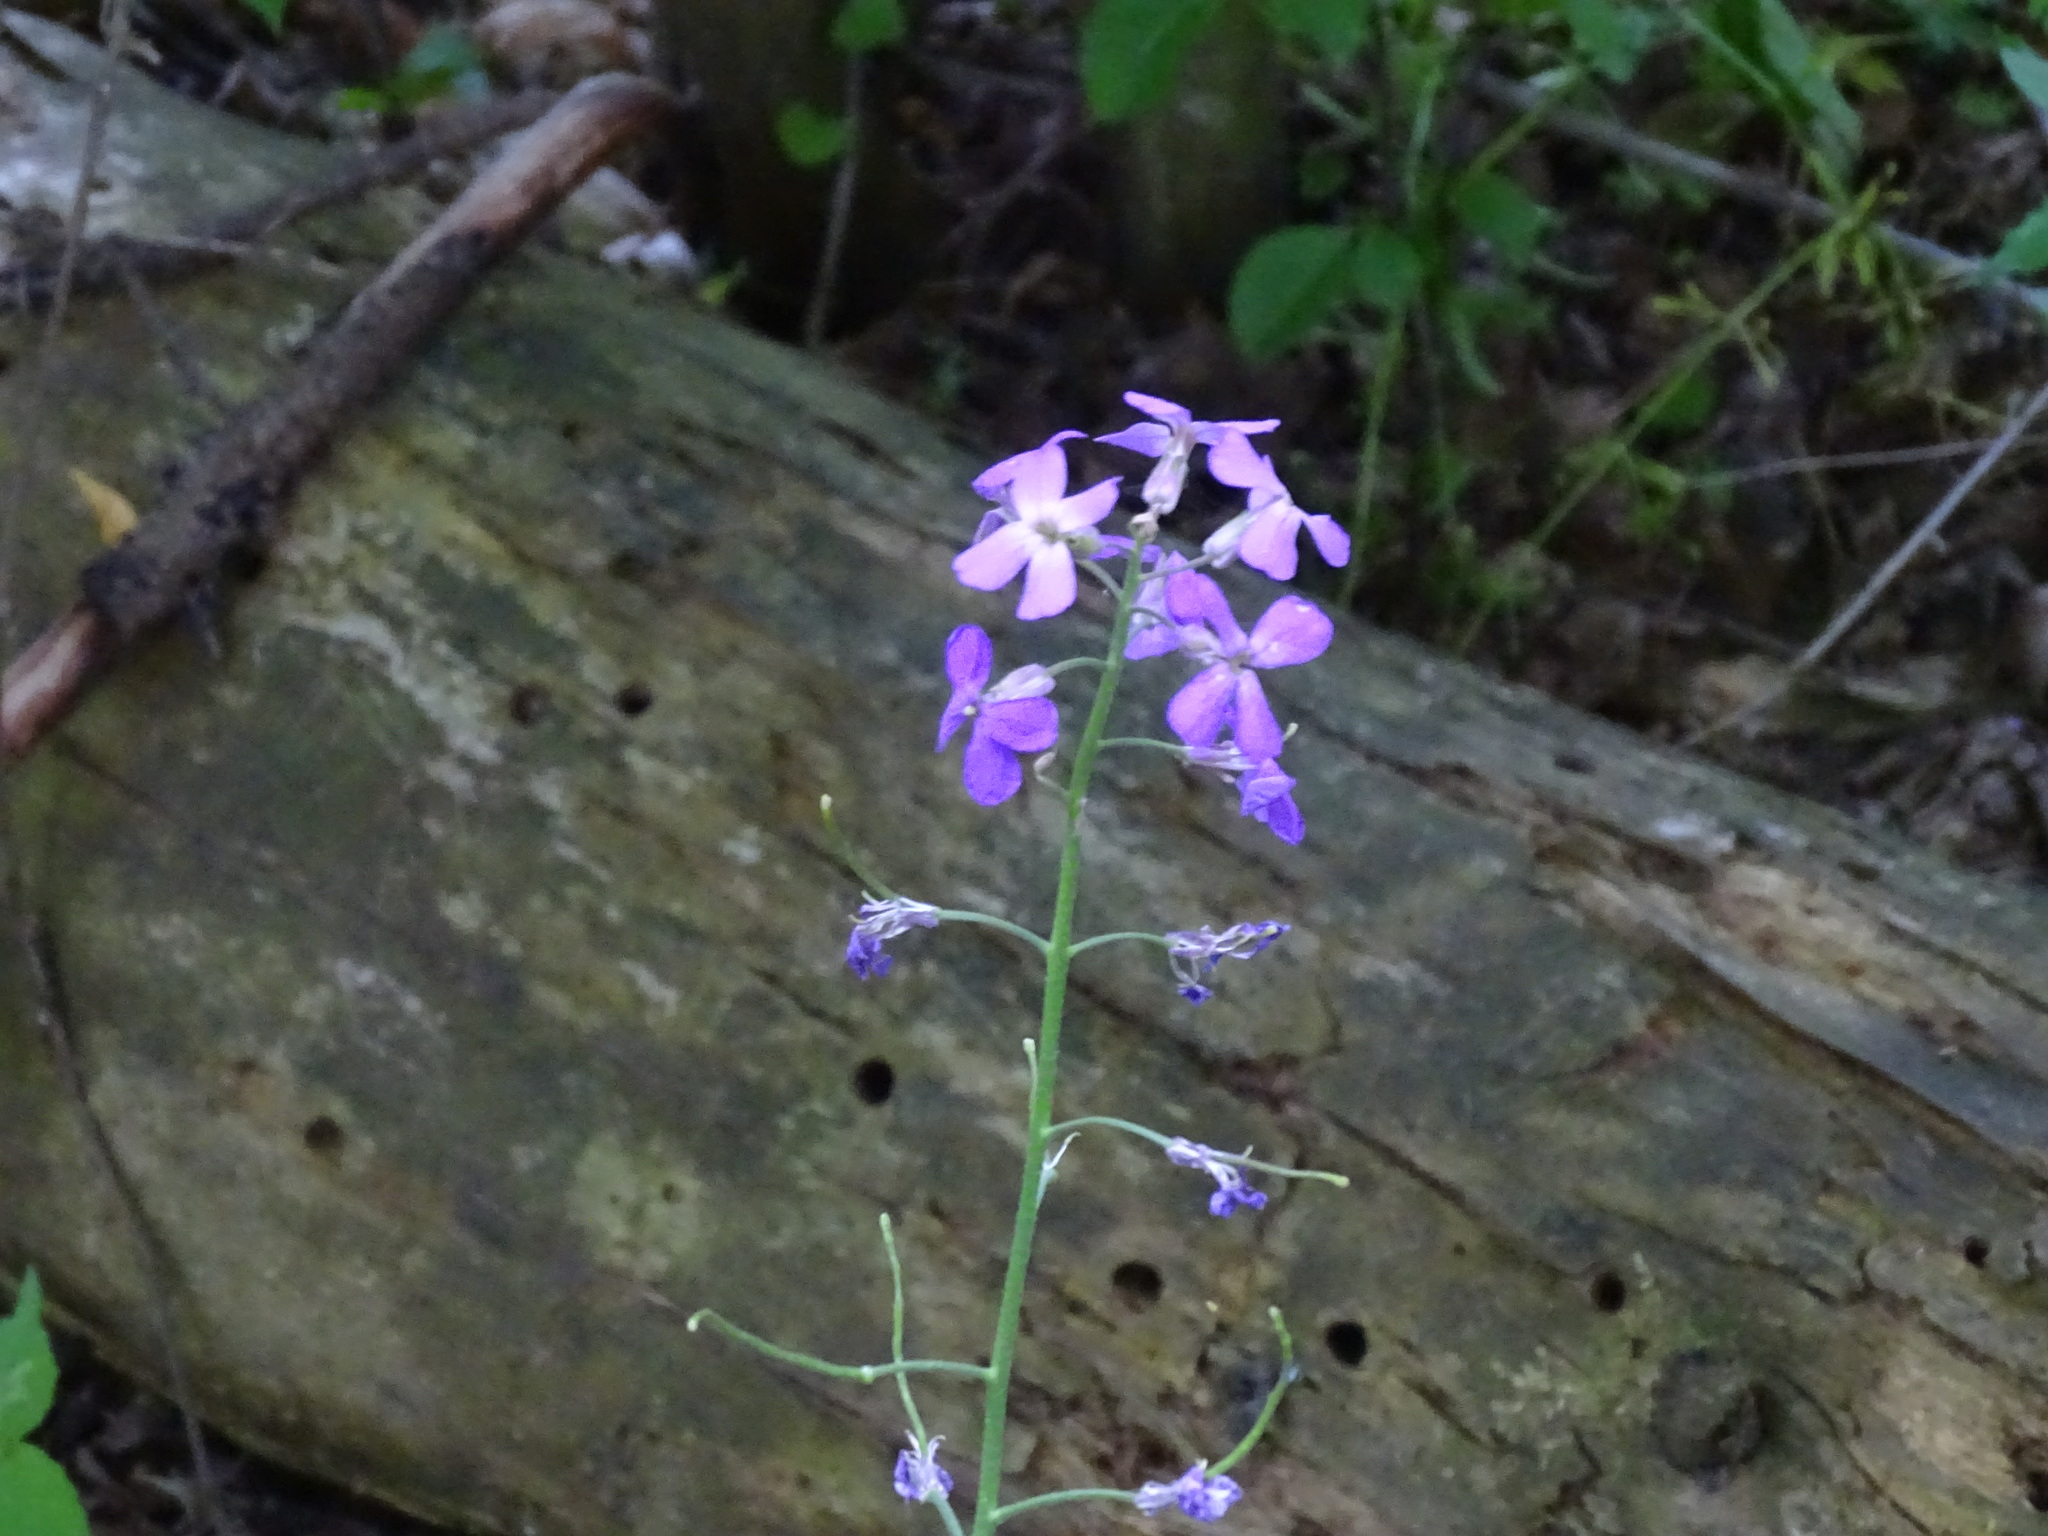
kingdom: Plantae
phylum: Tracheophyta
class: Magnoliopsida
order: Brassicales
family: Brassicaceae
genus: Hesperis
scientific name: Hesperis matronalis
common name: Dame's-violet
